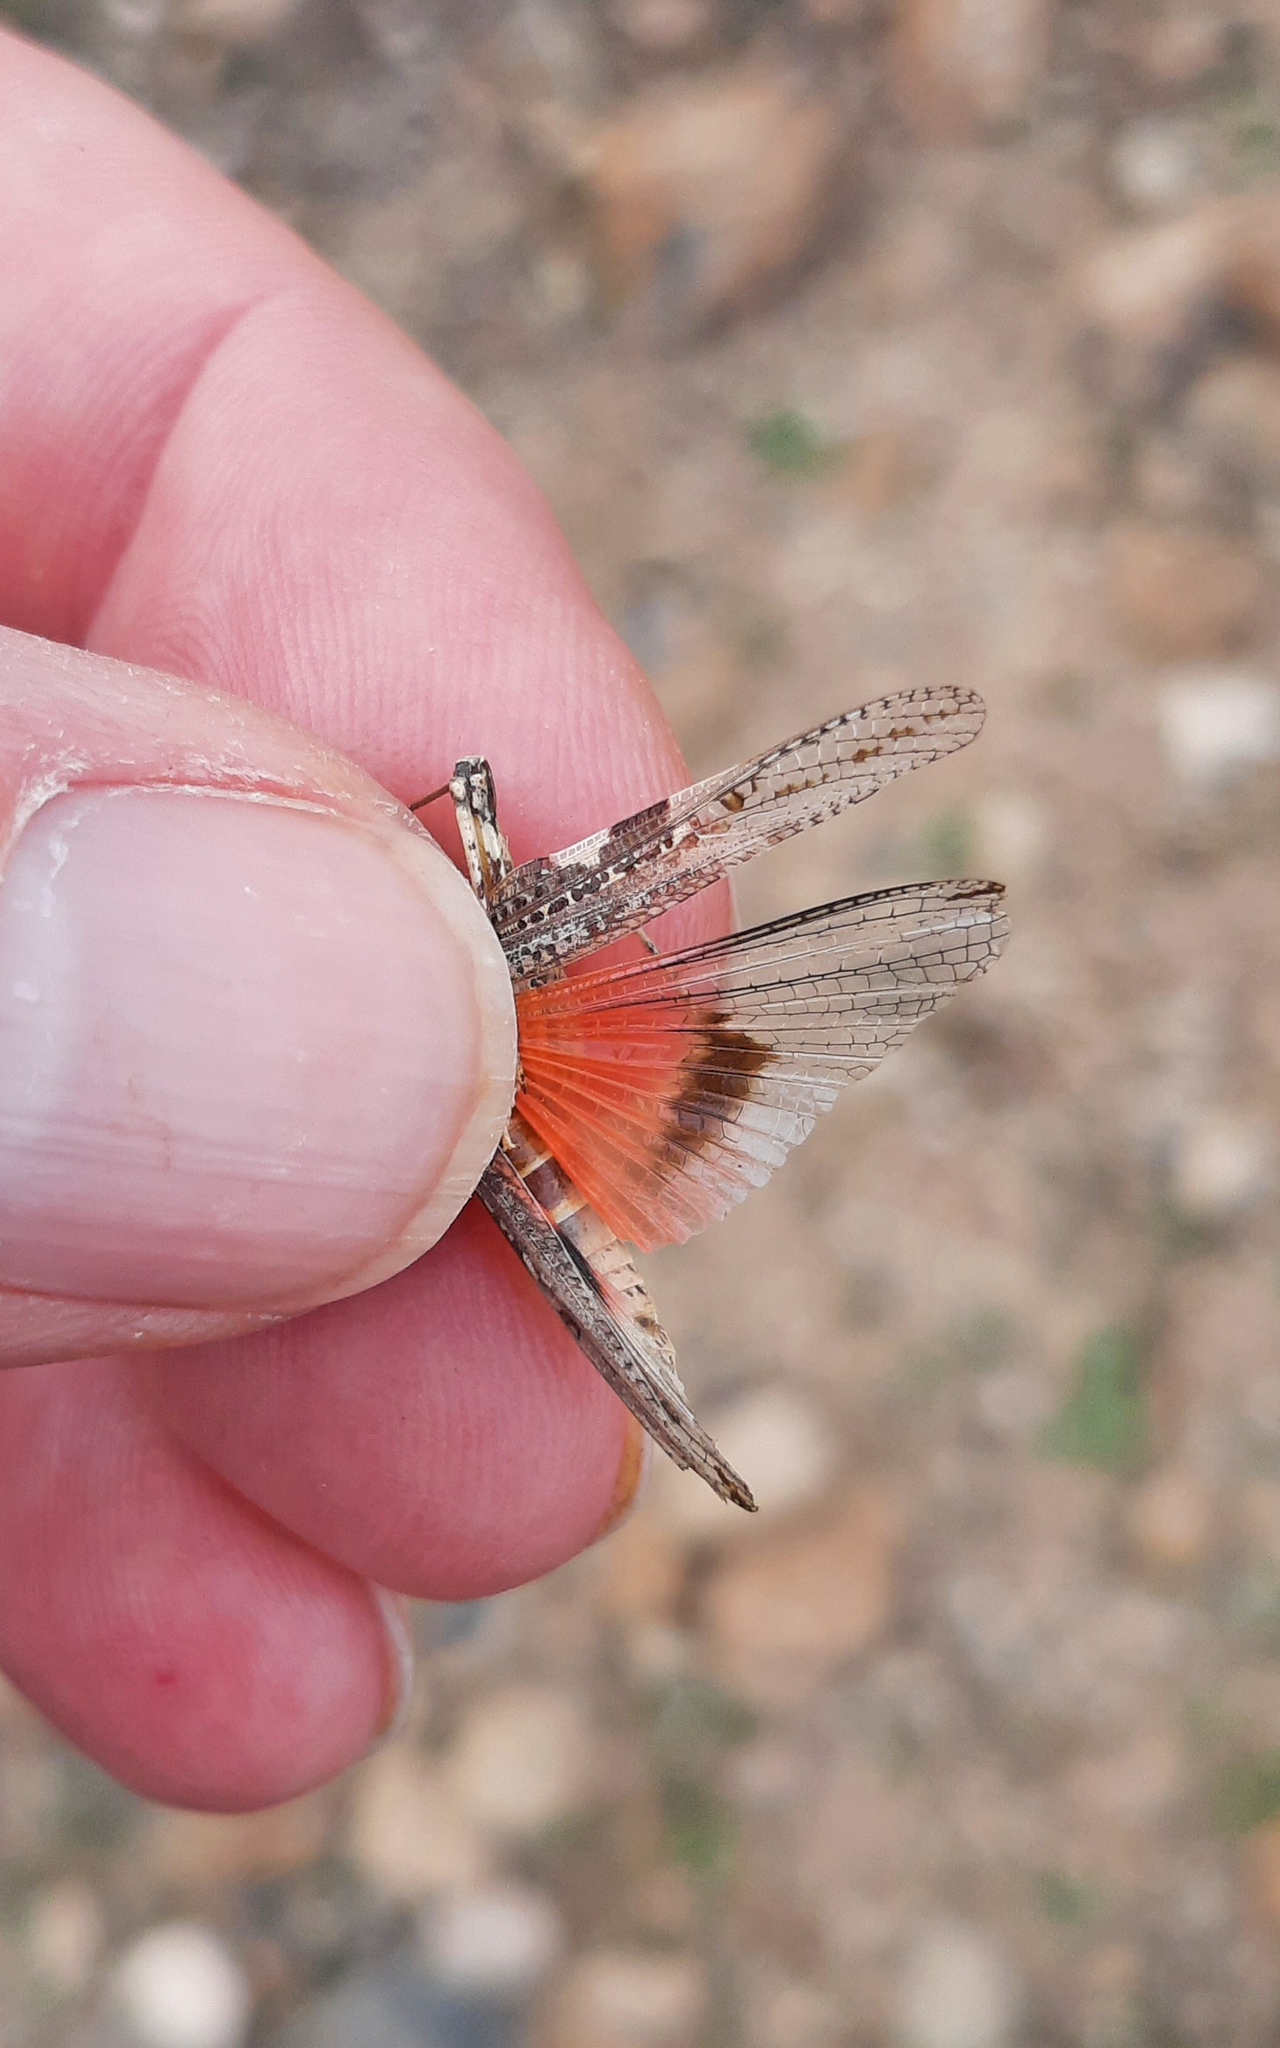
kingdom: Animalia
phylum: Arthropoda
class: Insecta
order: Orthoptera
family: Acrididae
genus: Acrotylus
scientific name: Acrotylus insubricus
